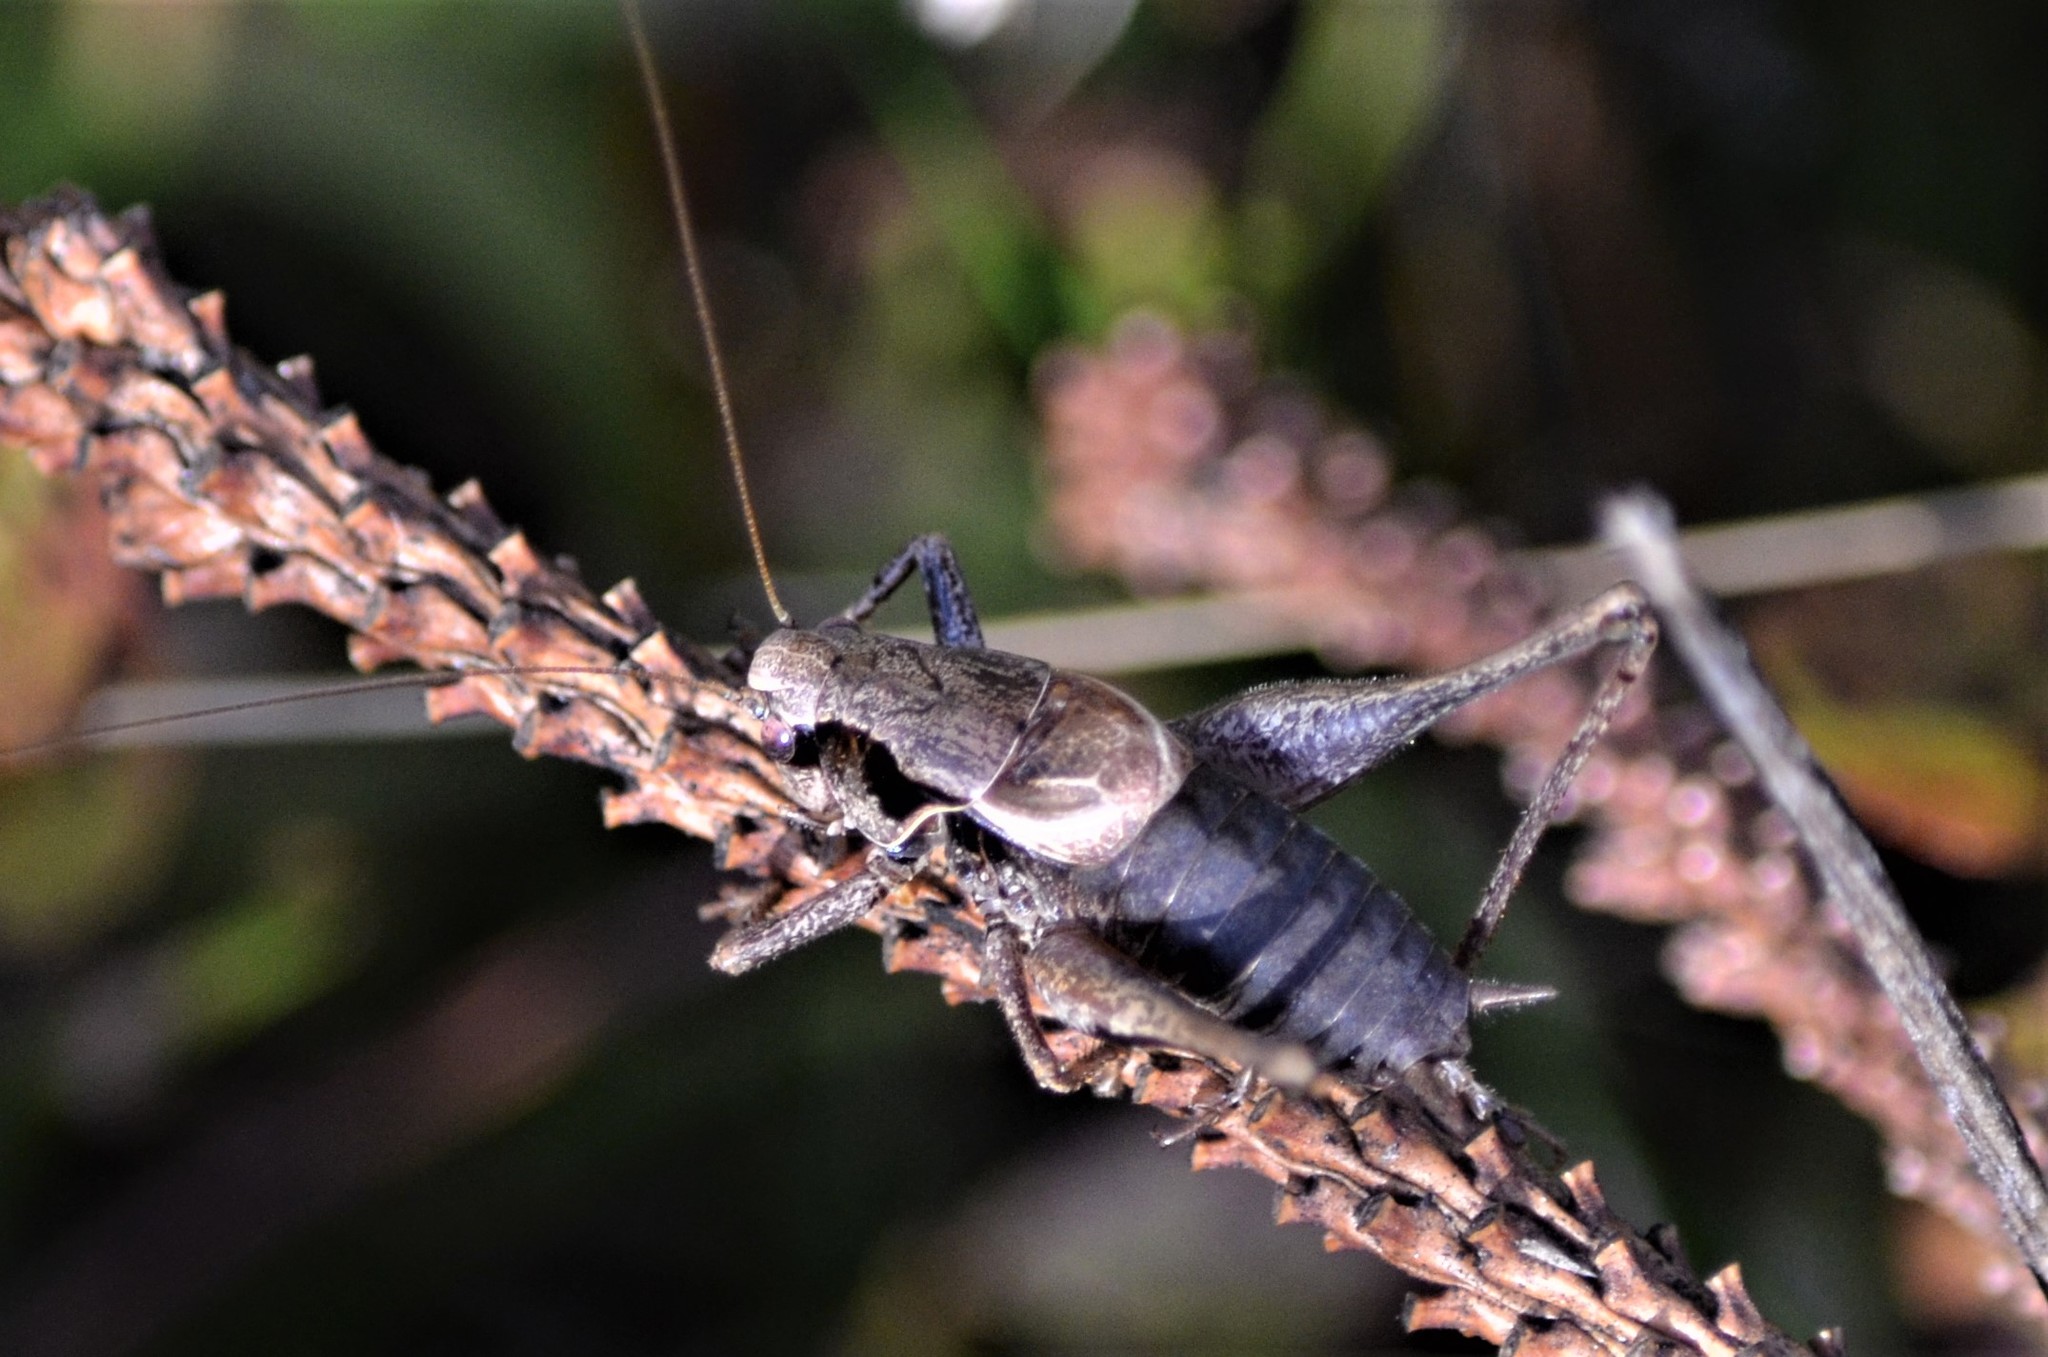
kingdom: Animalia
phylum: Arthropoda
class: Insecta
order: Orthoptera
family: Tettigoniidae
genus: Pholidoptera
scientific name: Pholidoptera griseoaptera
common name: Dark bush-cricket
